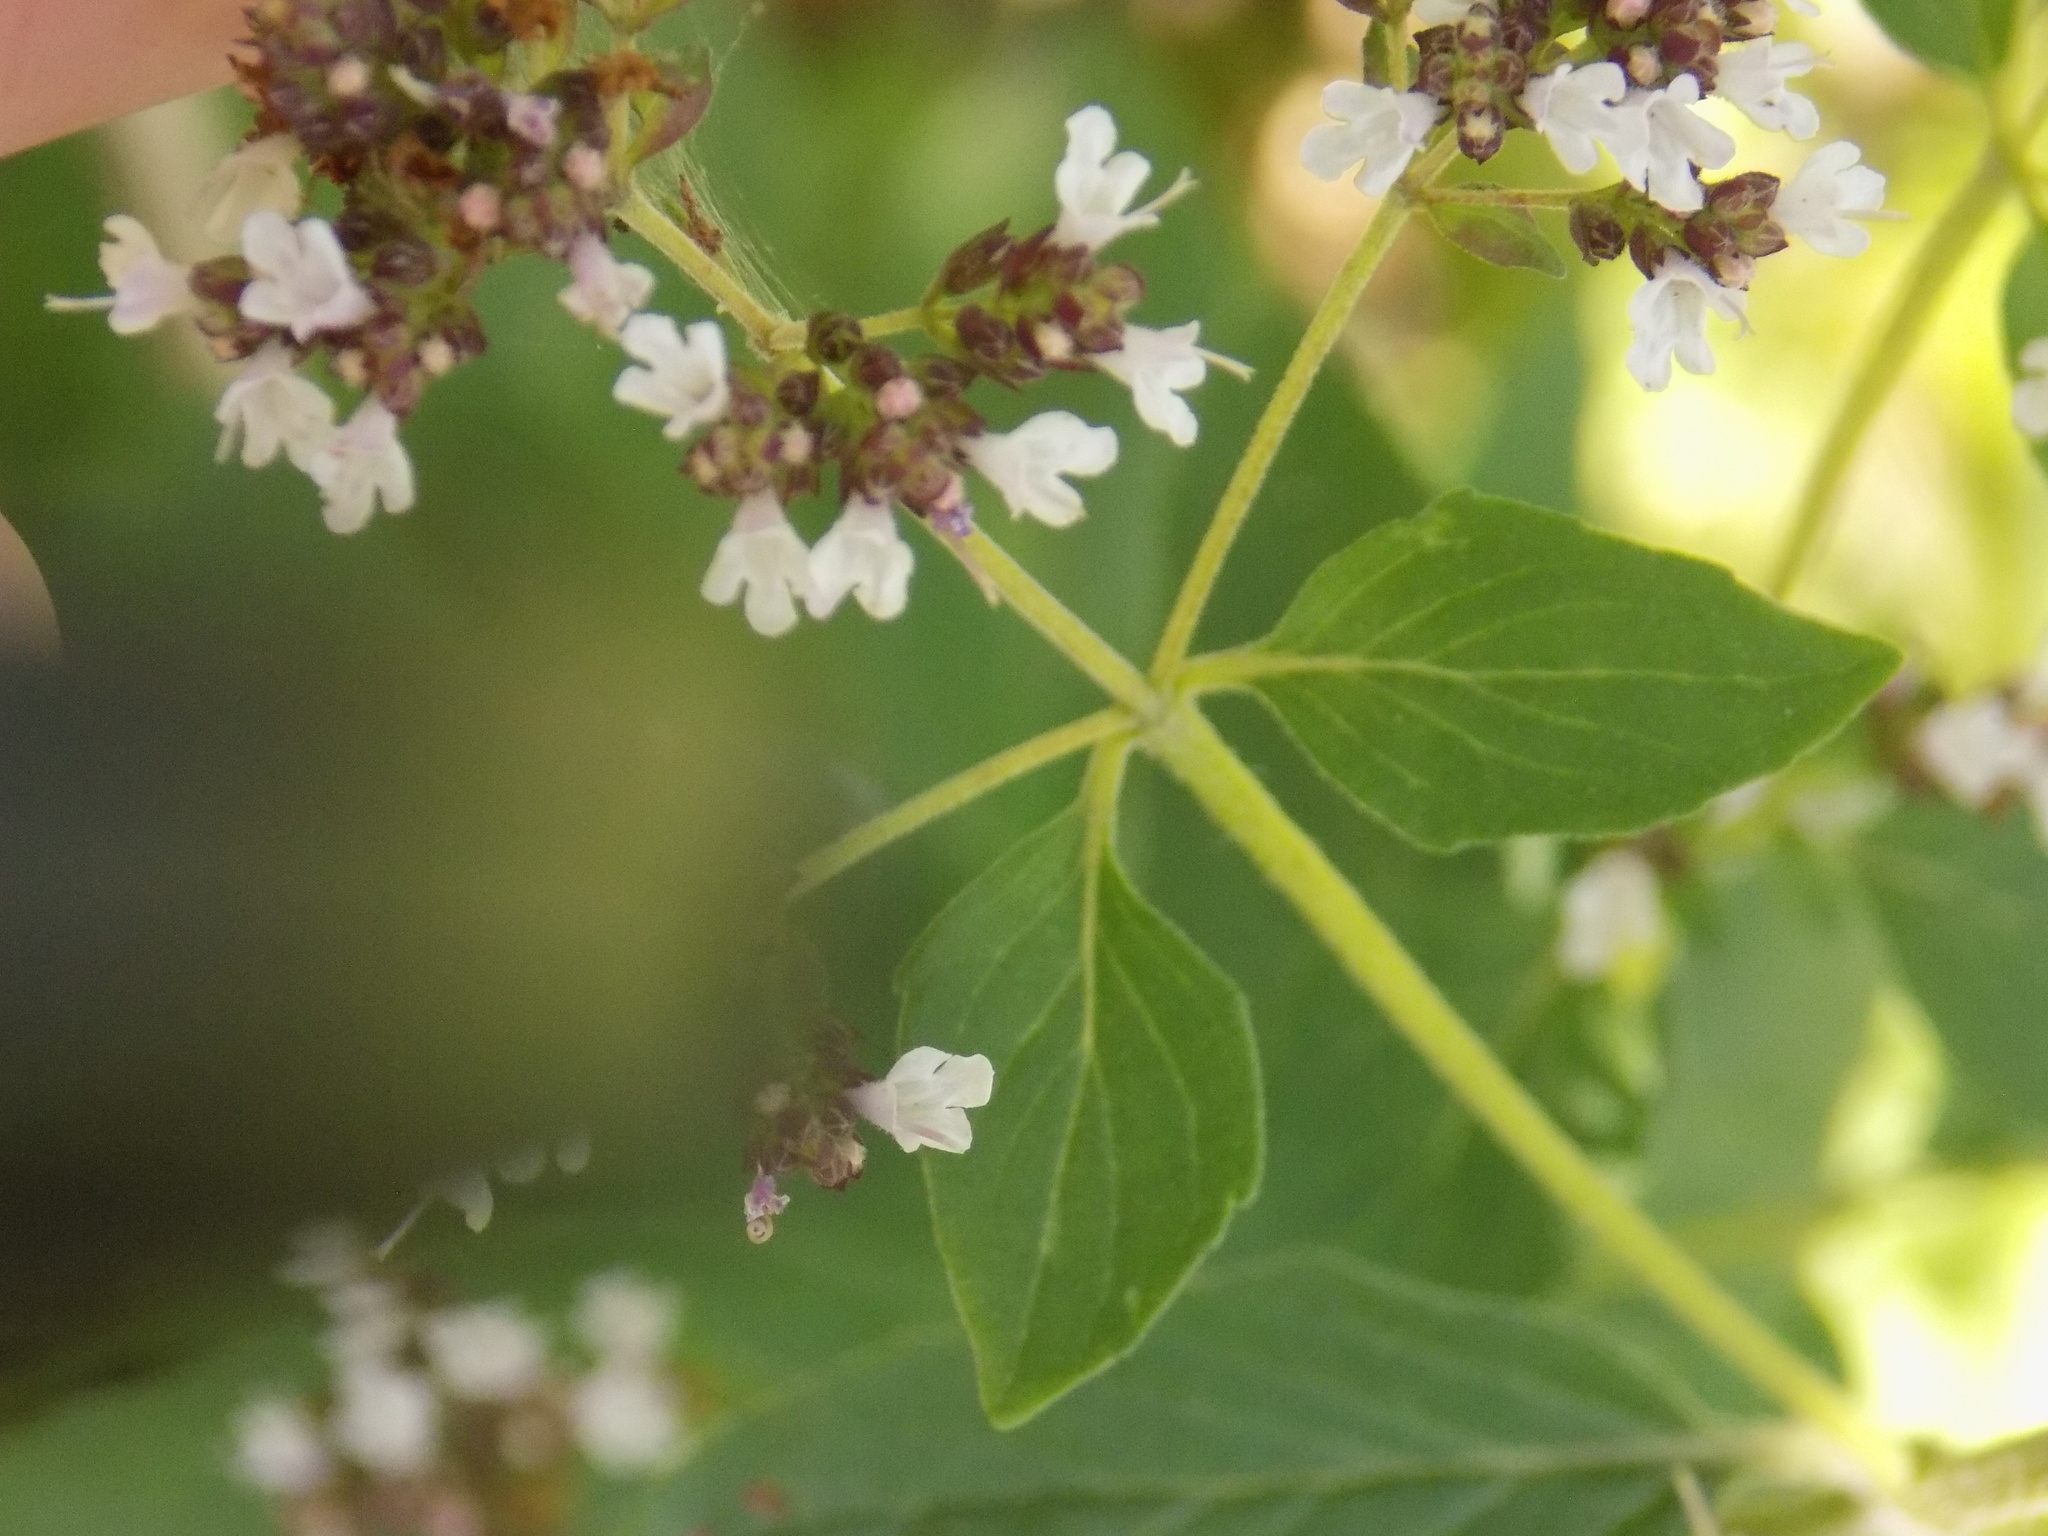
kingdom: Plantae
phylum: Tracheophyta
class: Magnoliopsida
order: Lamiales
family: Lamiaceae
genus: Origanum
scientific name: Origanum vulgare
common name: Wild marjoram
